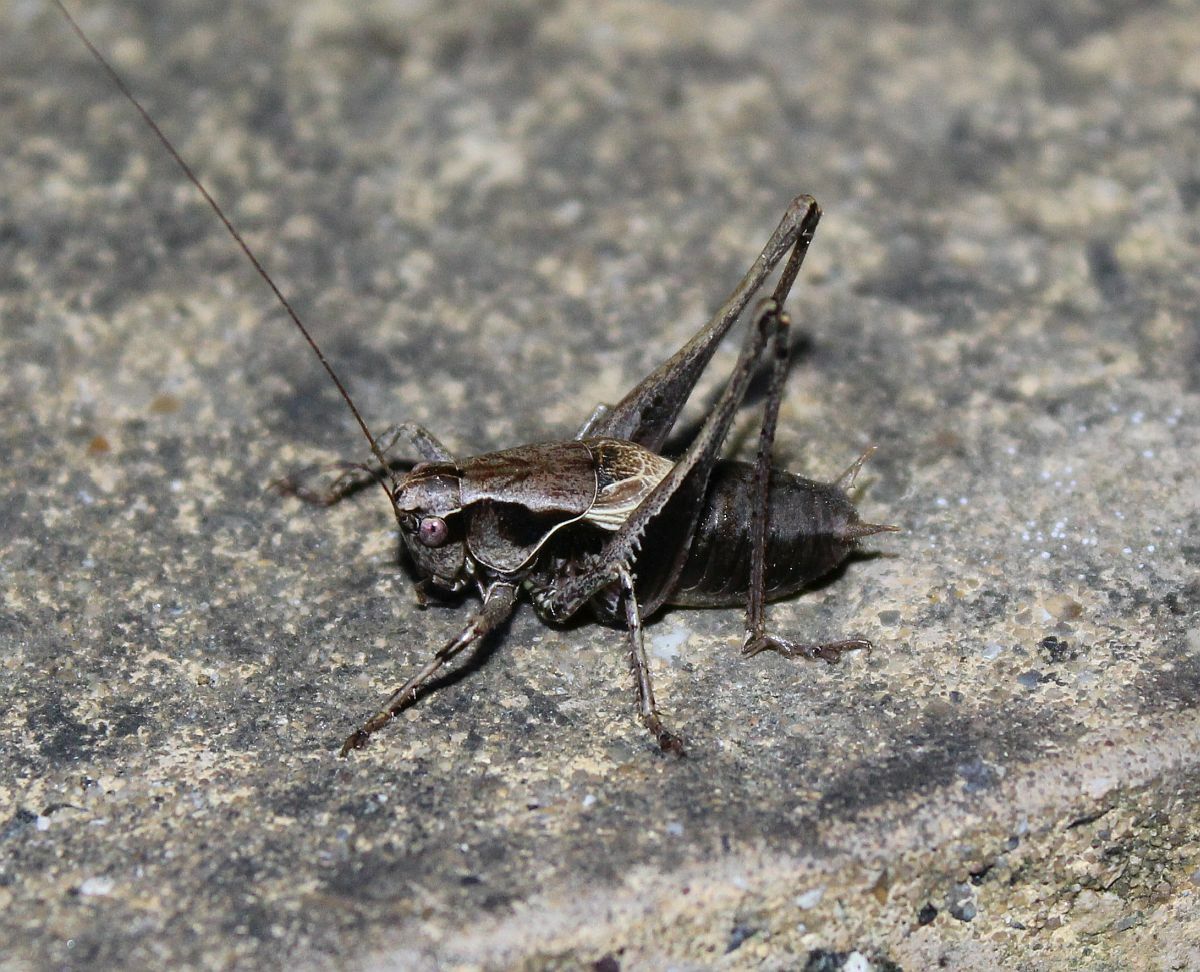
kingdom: Animalia
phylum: Arthropoda
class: Insecta
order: Orthoptera
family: Tettigoniidae
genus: Pholidoptera
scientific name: Pholidoptera griseoaptera
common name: Dark bush-cricket
